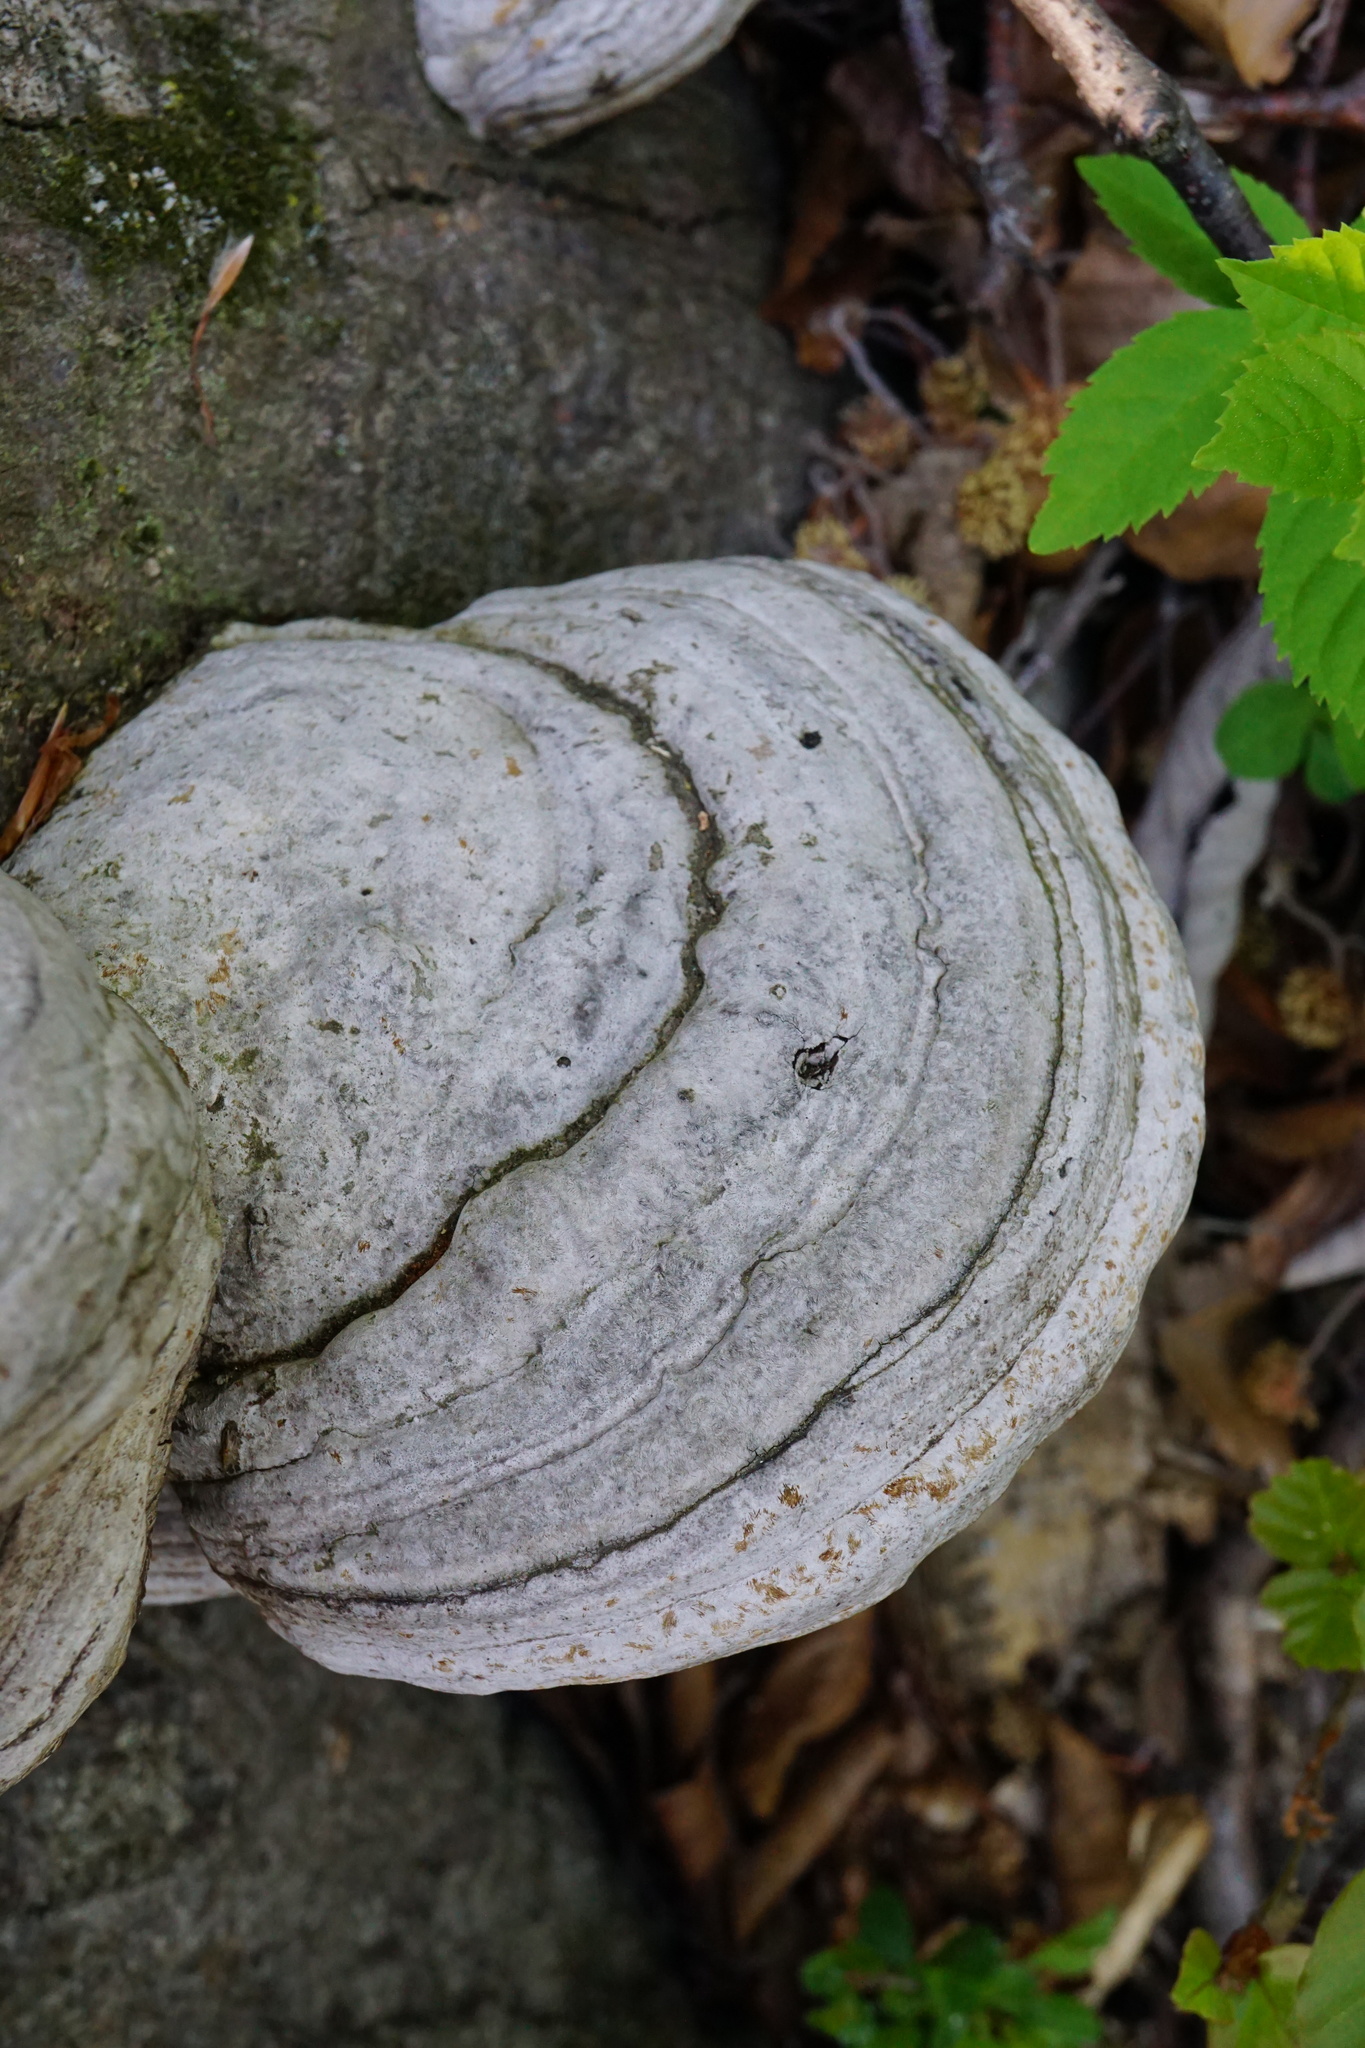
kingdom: Fungi
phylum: Basidiomycota
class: Agaricomycetes
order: Polyporales
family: Polyporaceae
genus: Fomes
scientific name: Fomes fomentarius
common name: Hoof fungus
